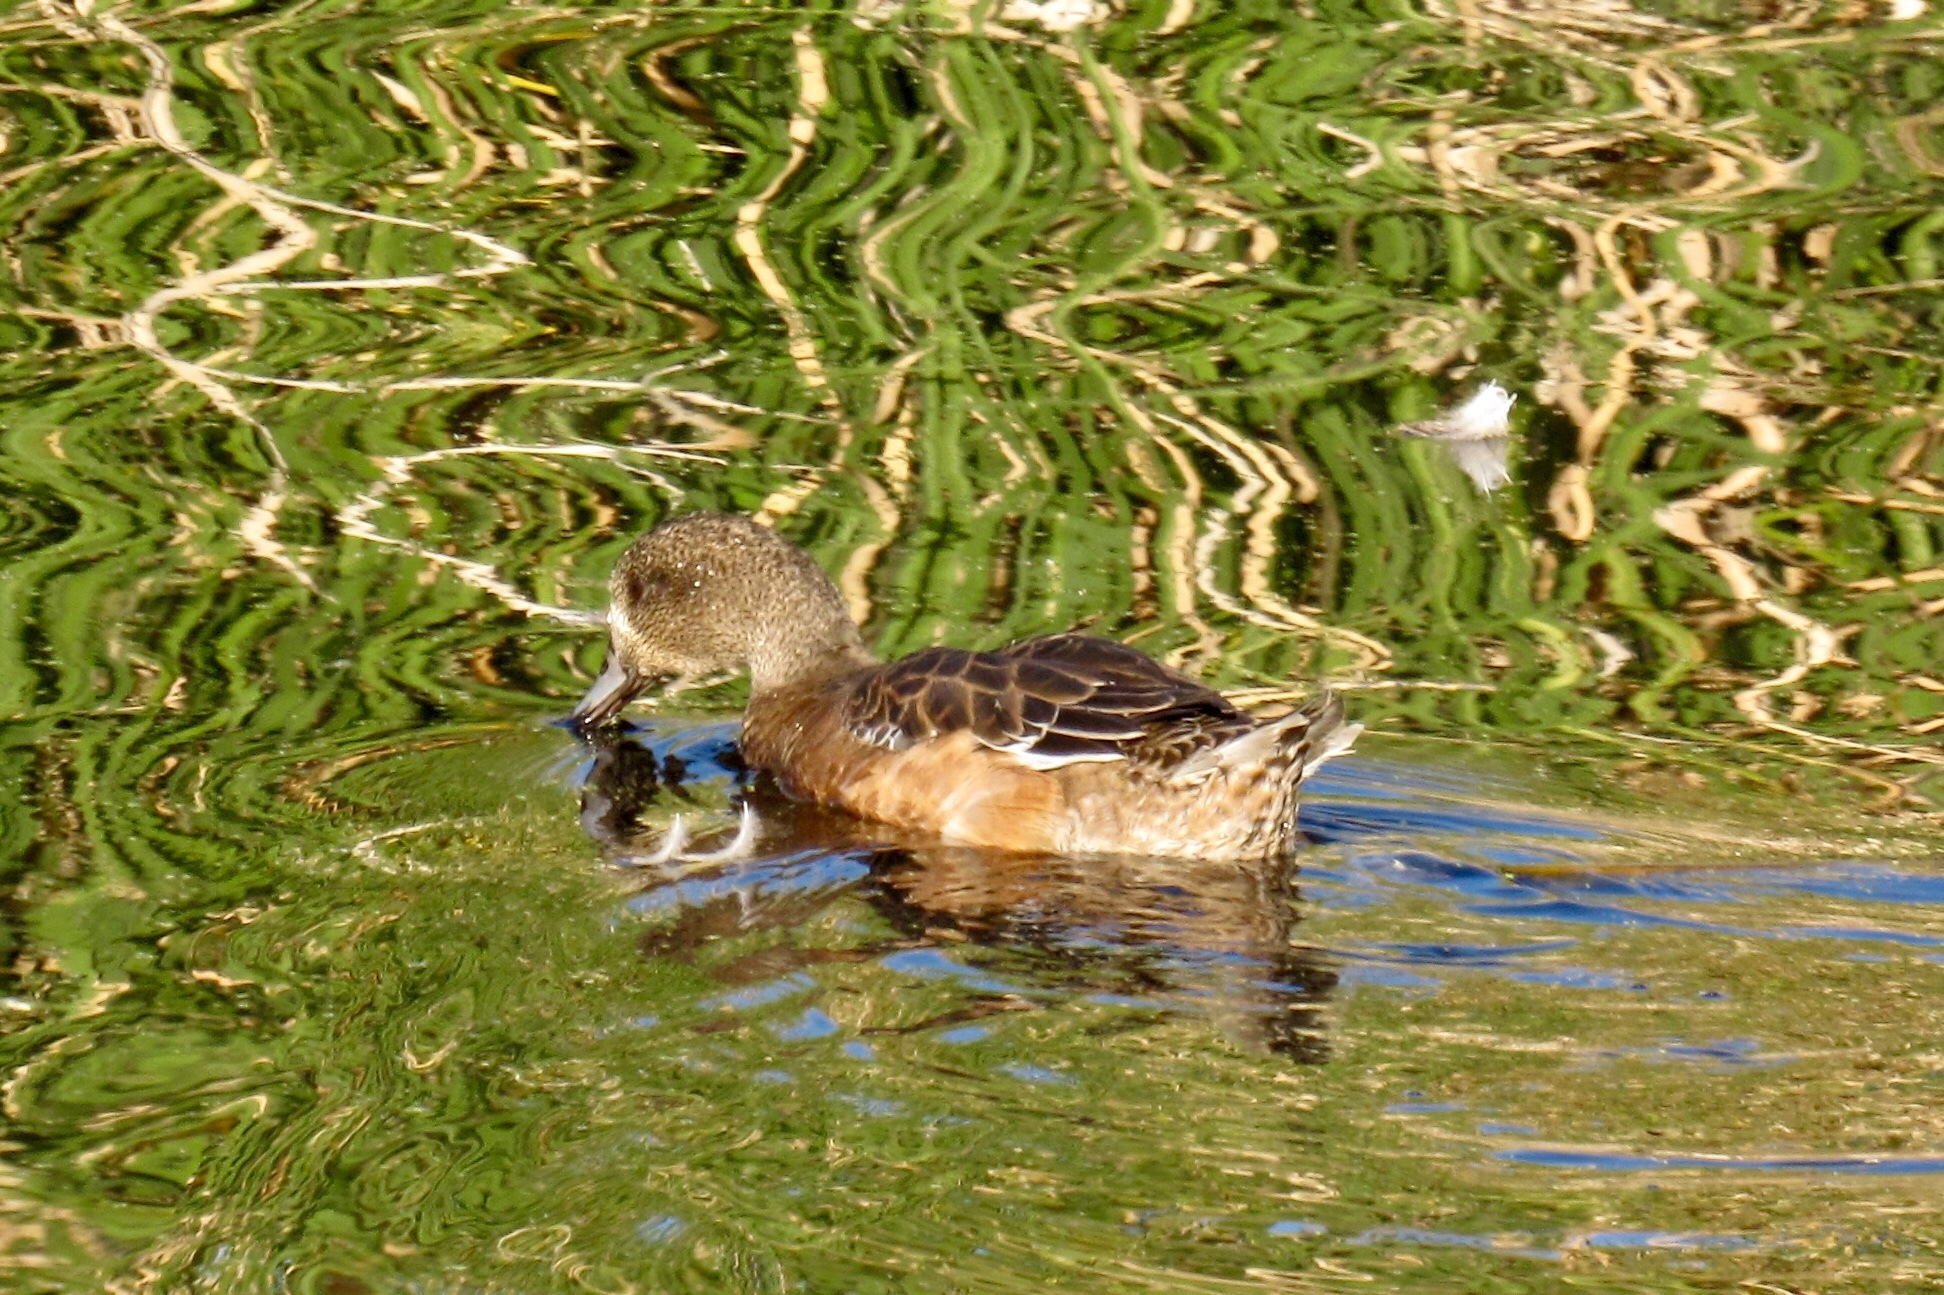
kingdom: Animalia
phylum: Chordata
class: Aves
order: Anseriformes
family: Anatidae
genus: Mareca
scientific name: Mareca americana
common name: American wigeon
